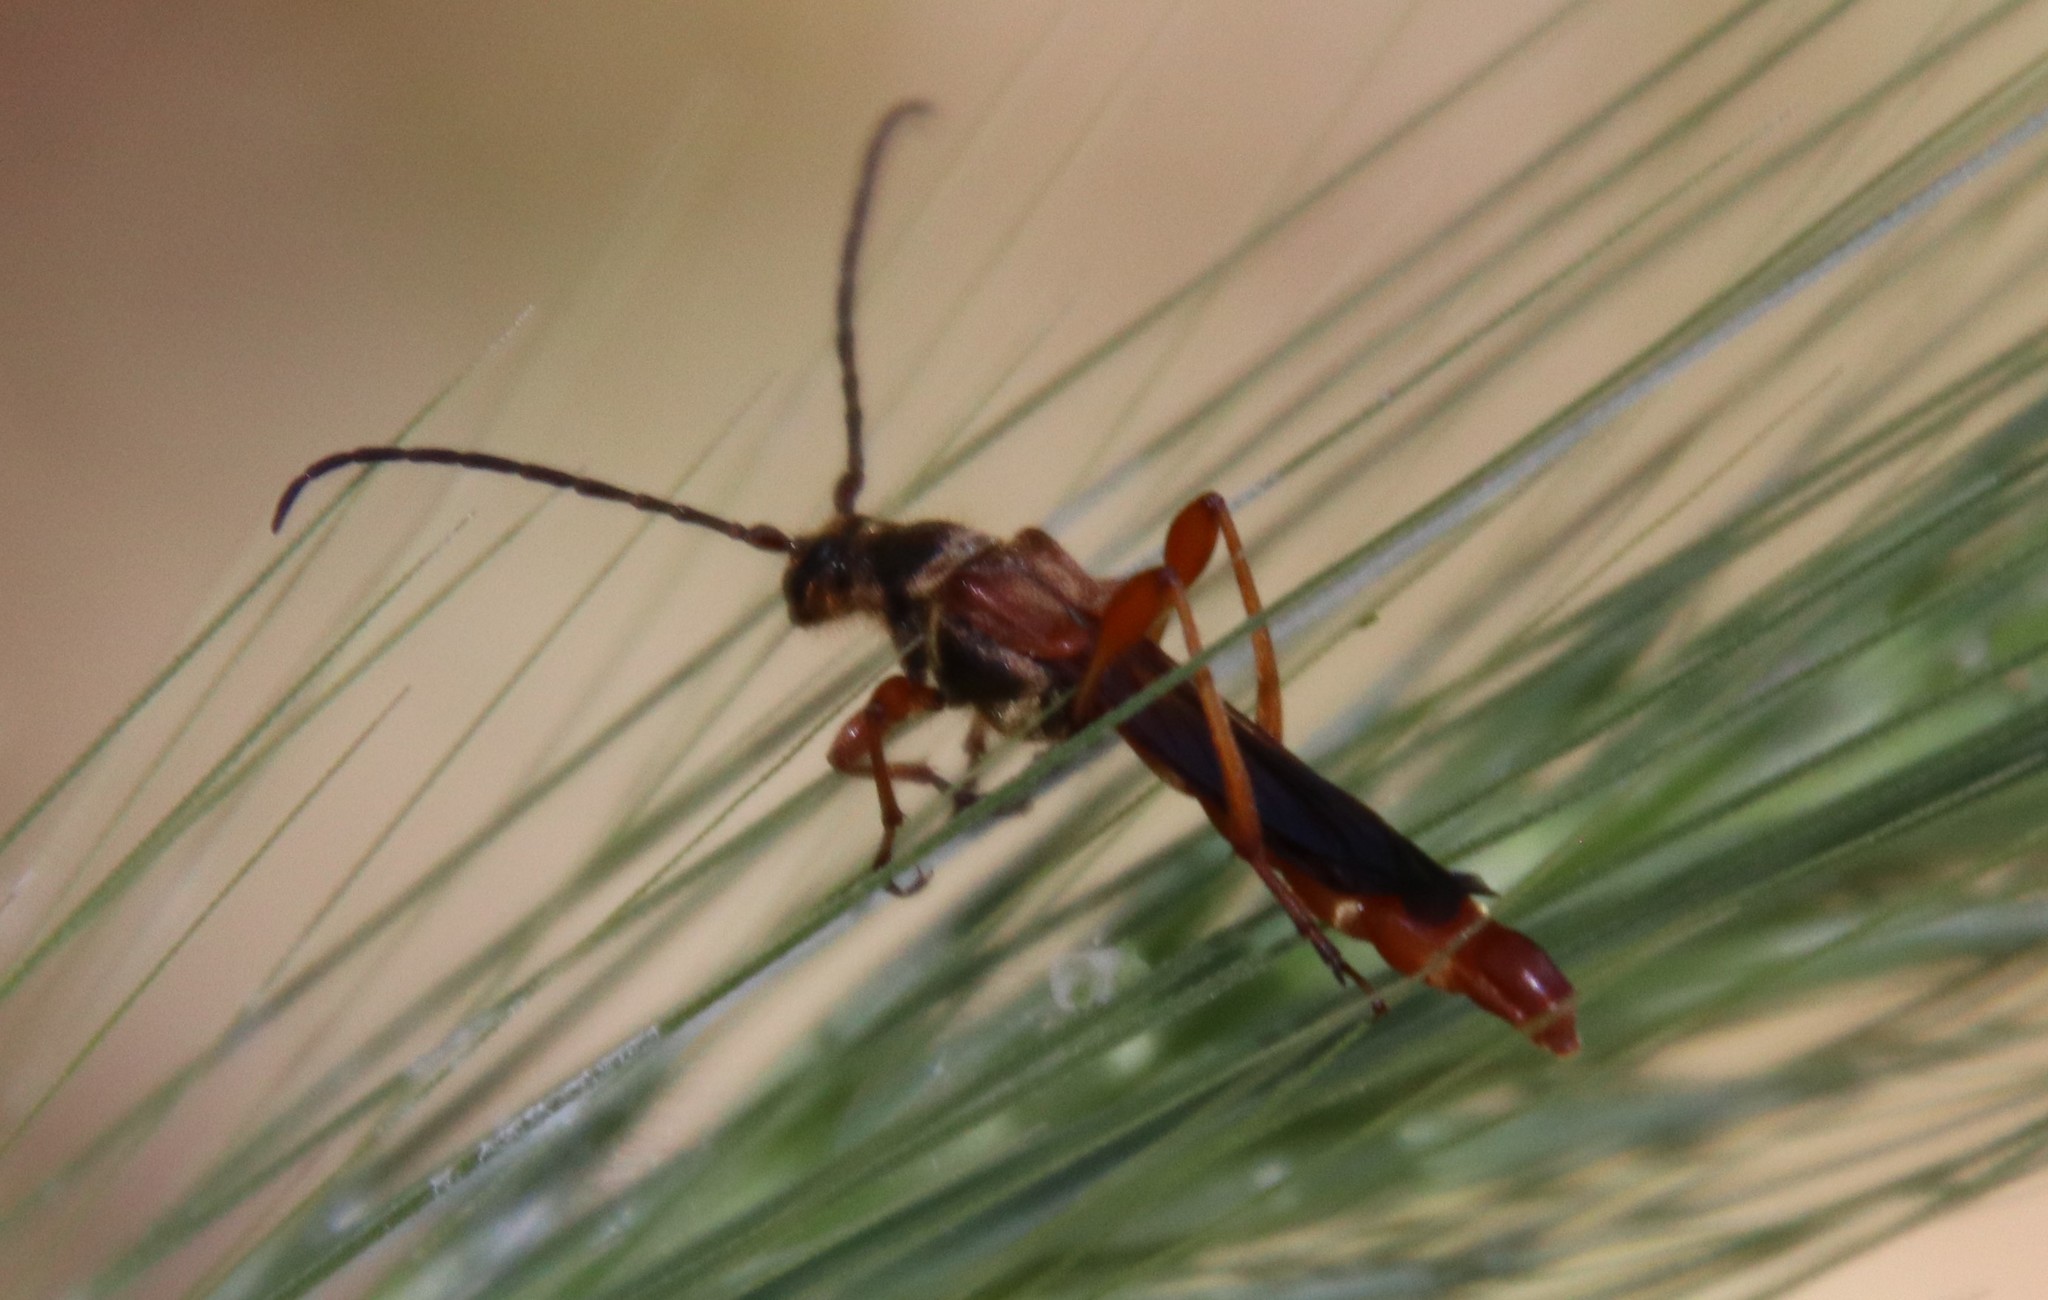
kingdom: Animalia
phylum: Arthropoda
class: Insecta
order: Coleoptera
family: Cerambycidae
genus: Necydalis
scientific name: Necydalis cavipennis
